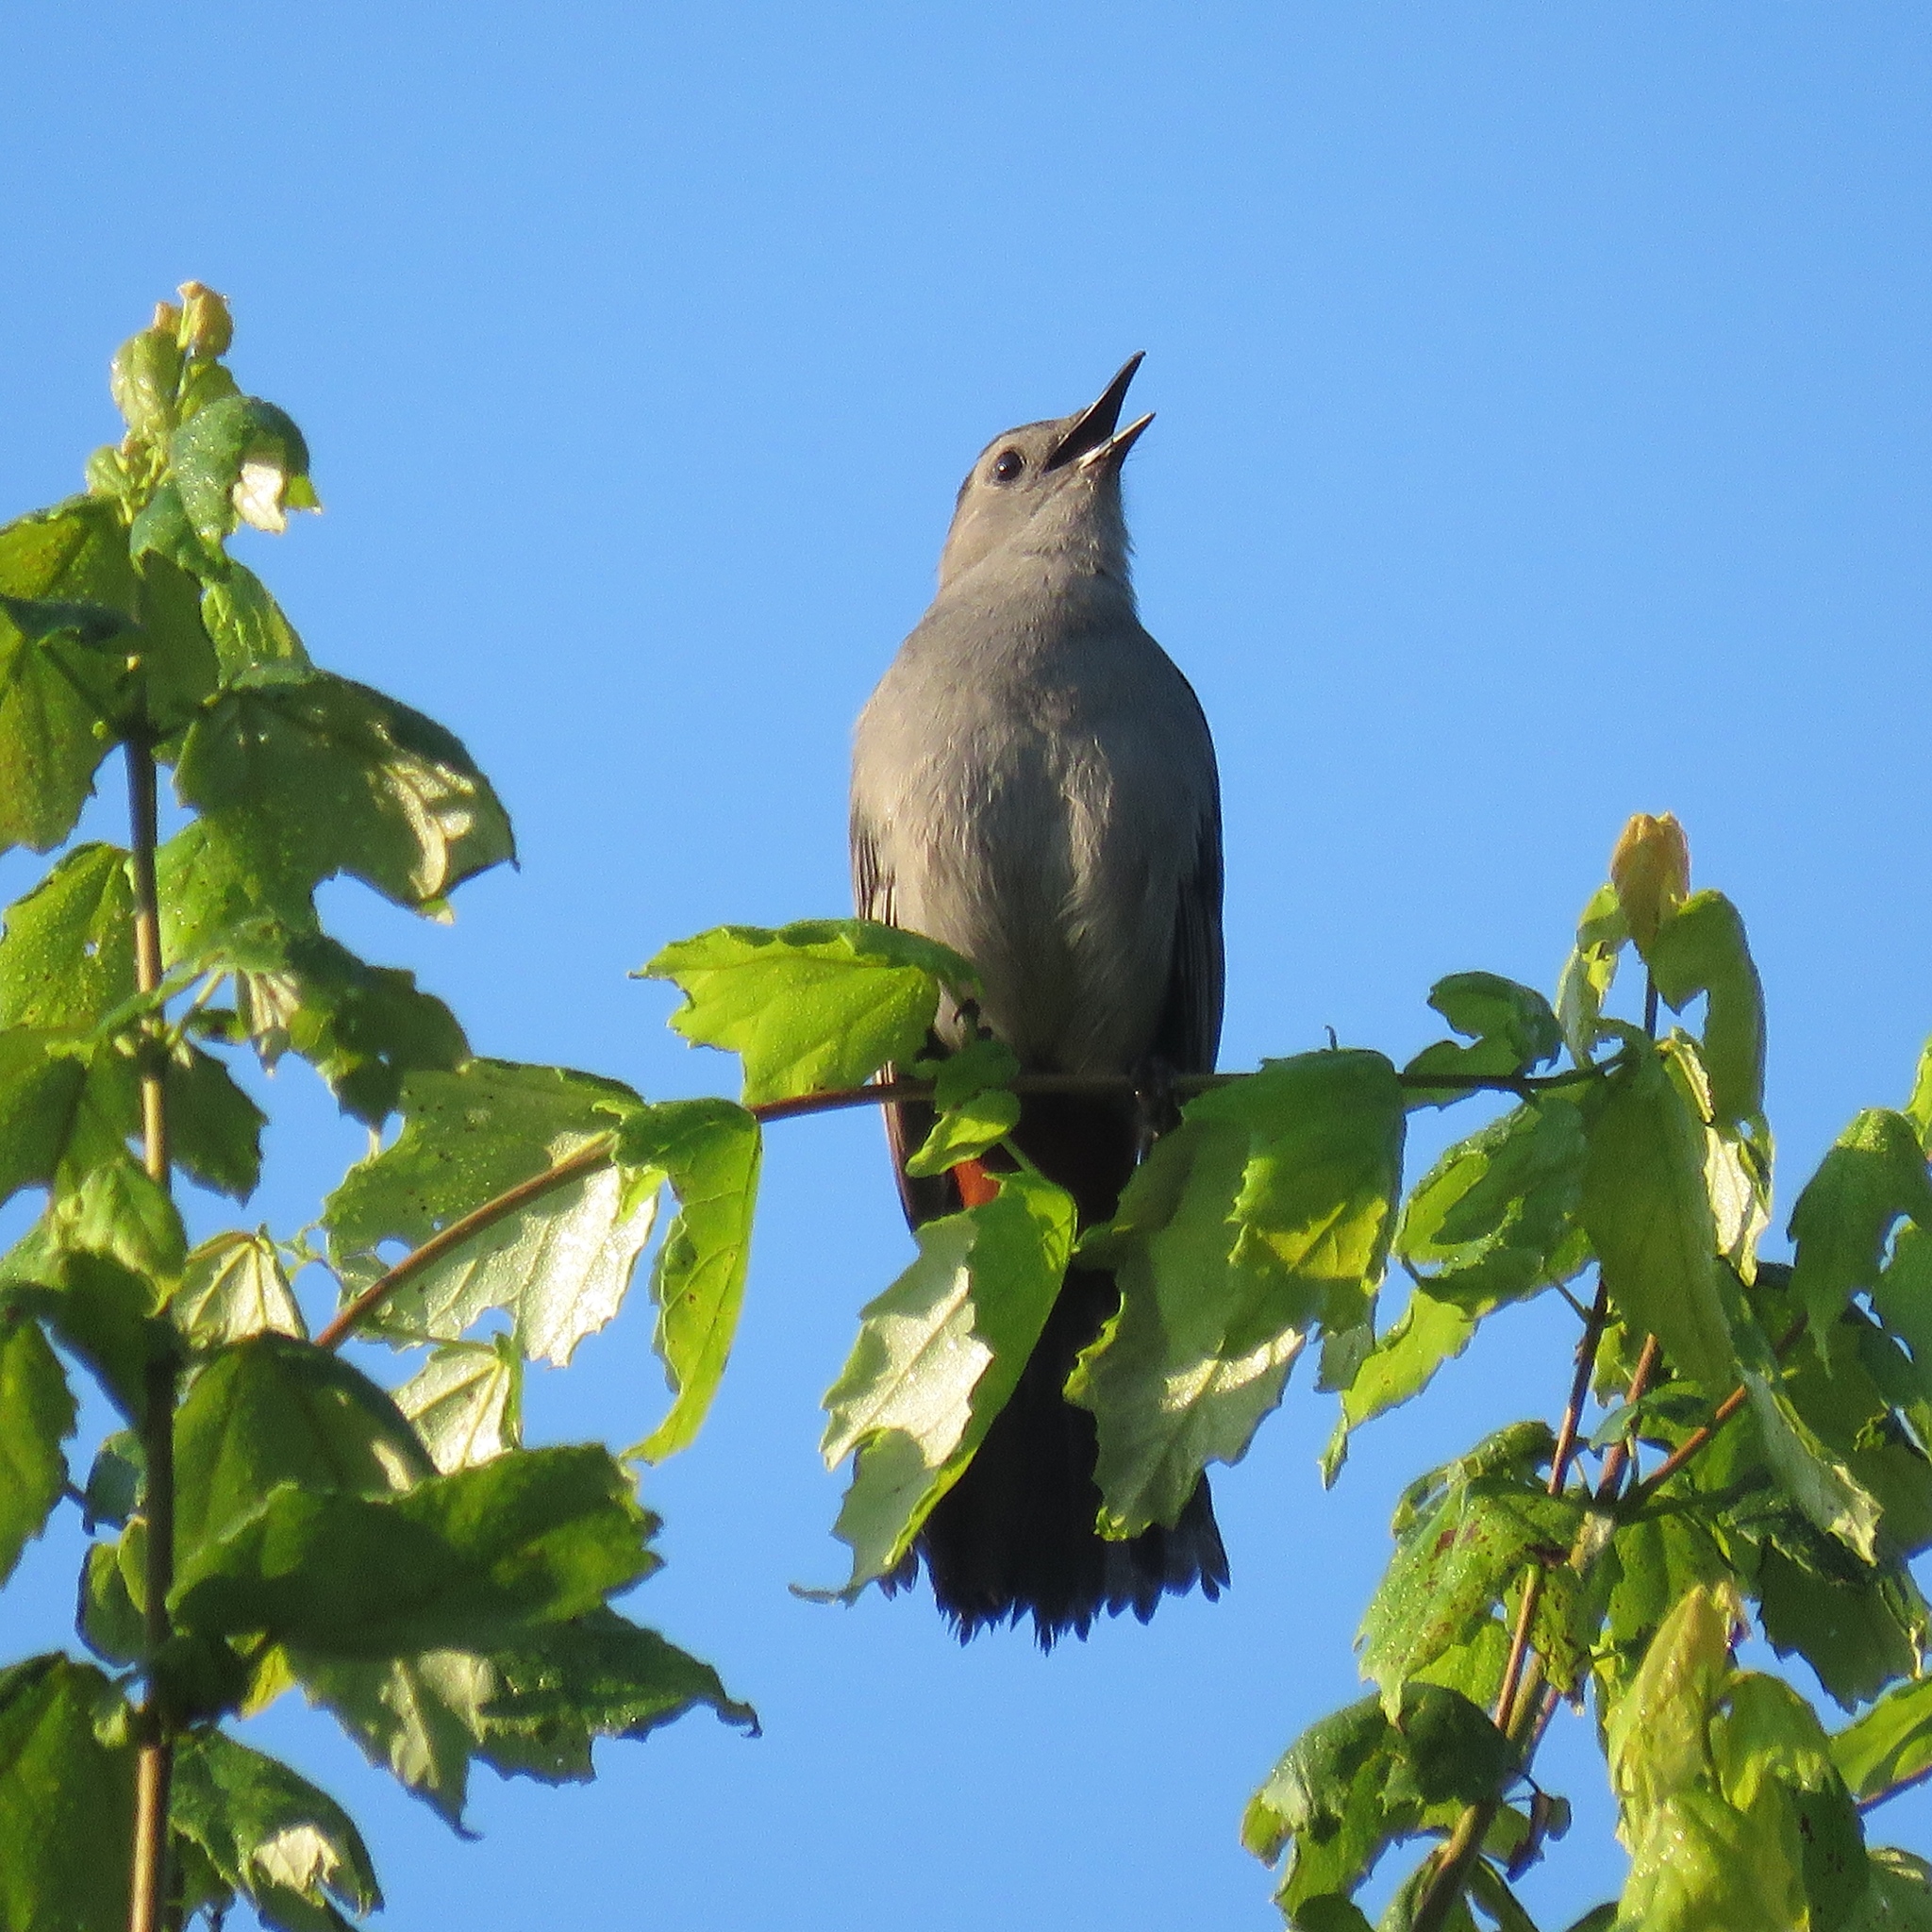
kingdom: Animalia
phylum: Chordata
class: Aves
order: Passeriformes
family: Mimidae
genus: Dumetella
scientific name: Dumetella carolinensis
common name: Gray catbird
